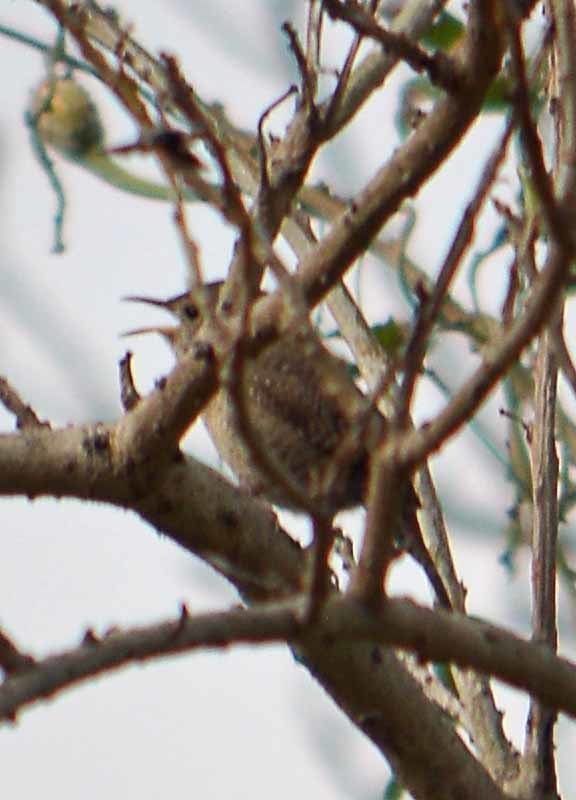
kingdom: Animalia
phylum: Chordata
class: Aves
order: Passeriformes
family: Troglodytidae
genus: Troglodytes
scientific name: Troglodytes aedon
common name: House wren
